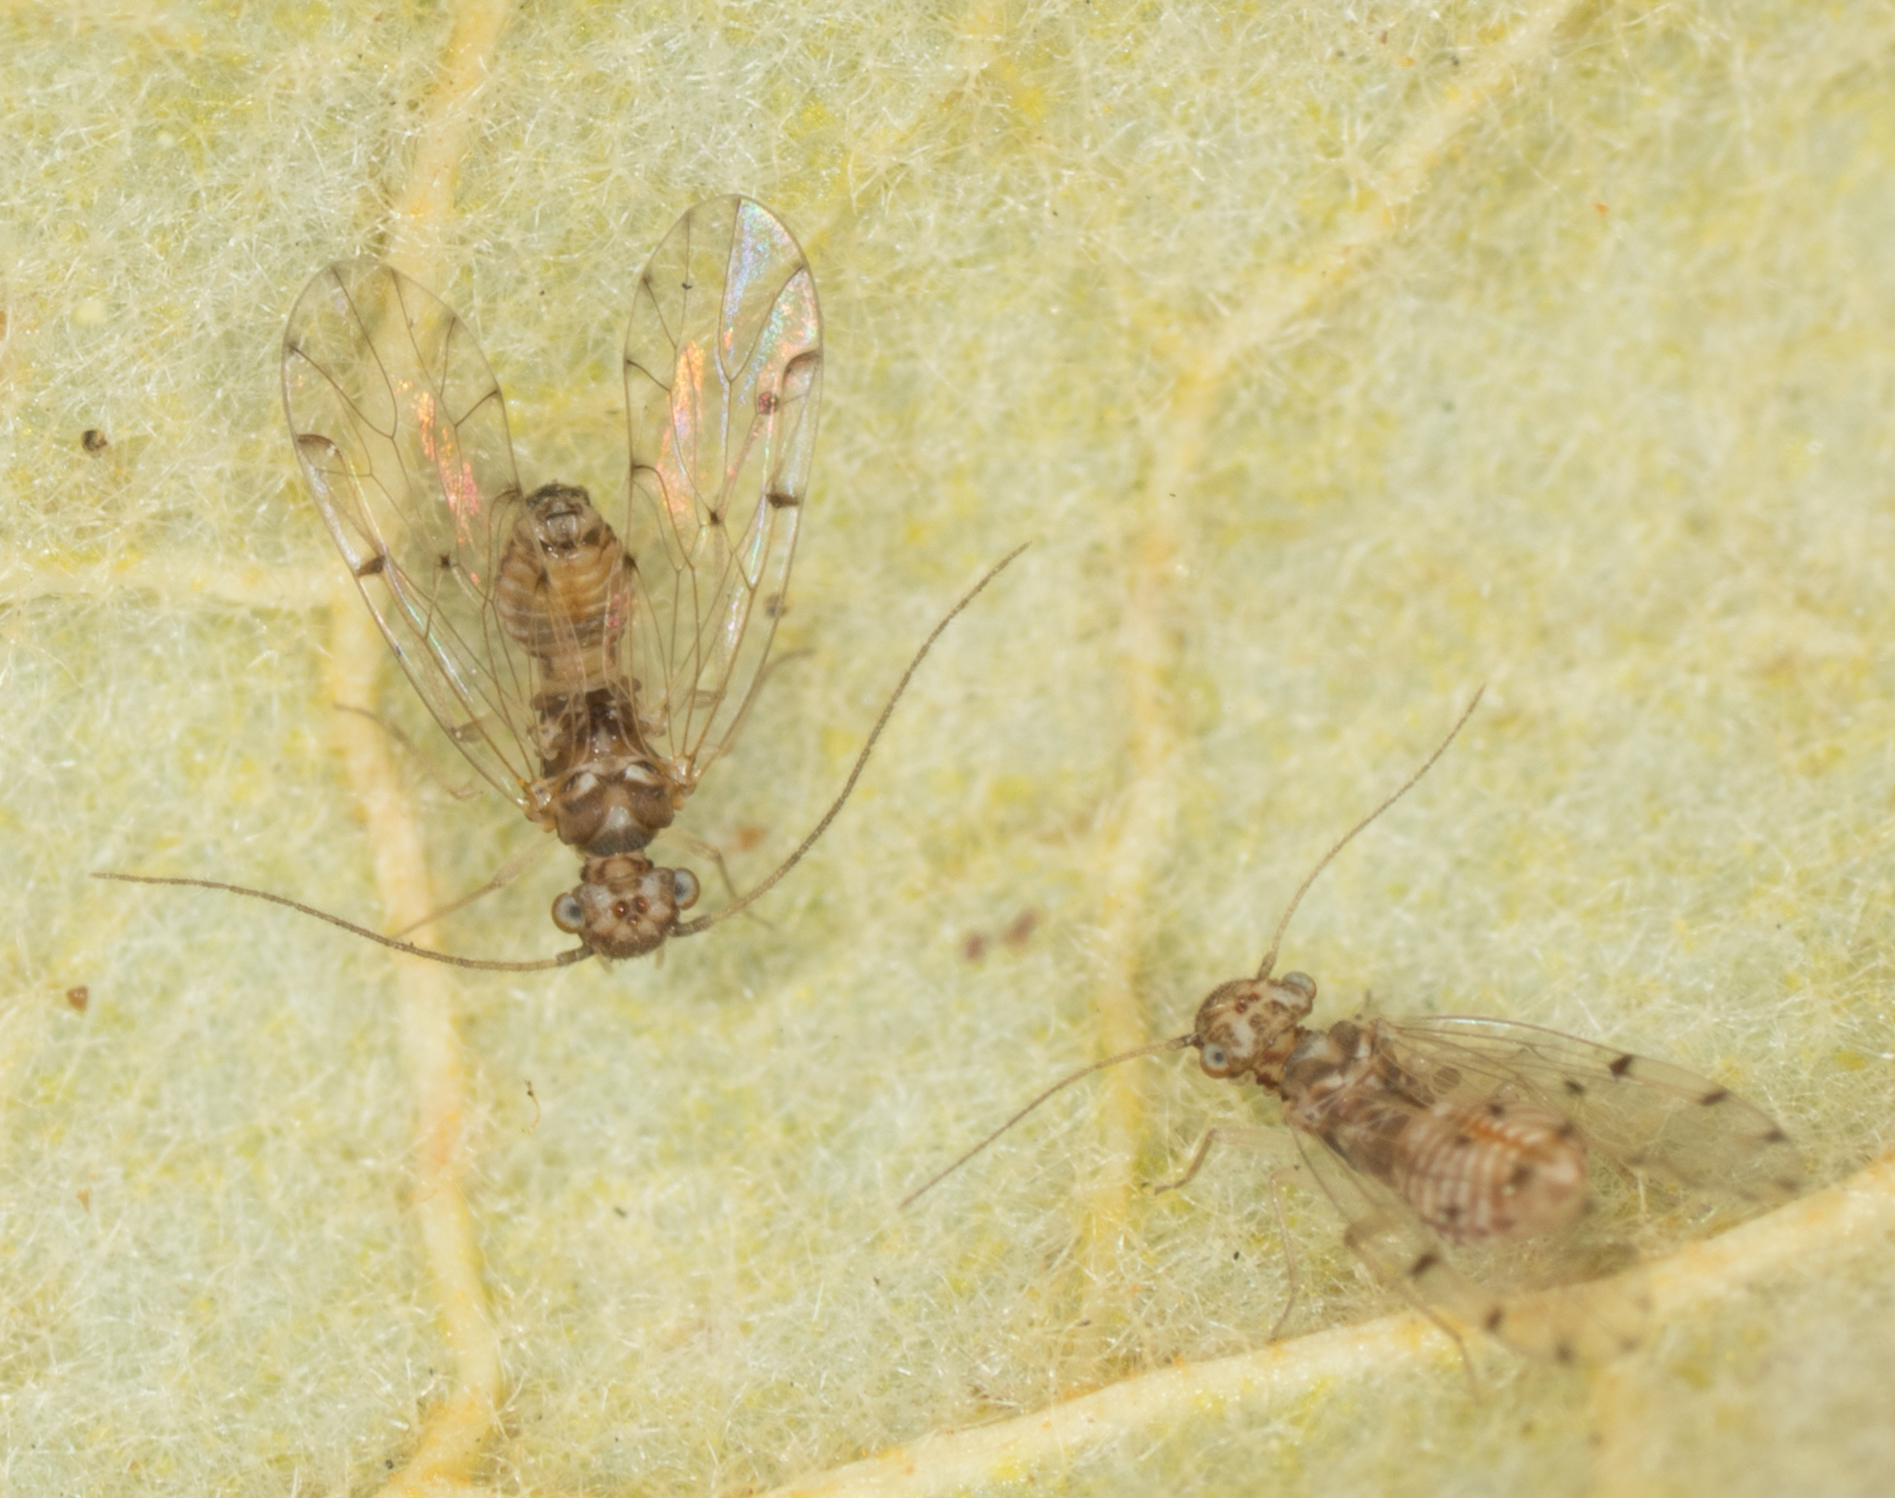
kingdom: Animalia
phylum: Arthropoda
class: Insecta
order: Psocodea
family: Ectopsocidae
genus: Ectopsocus
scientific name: Ectopsocus californicus
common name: Bark lice
